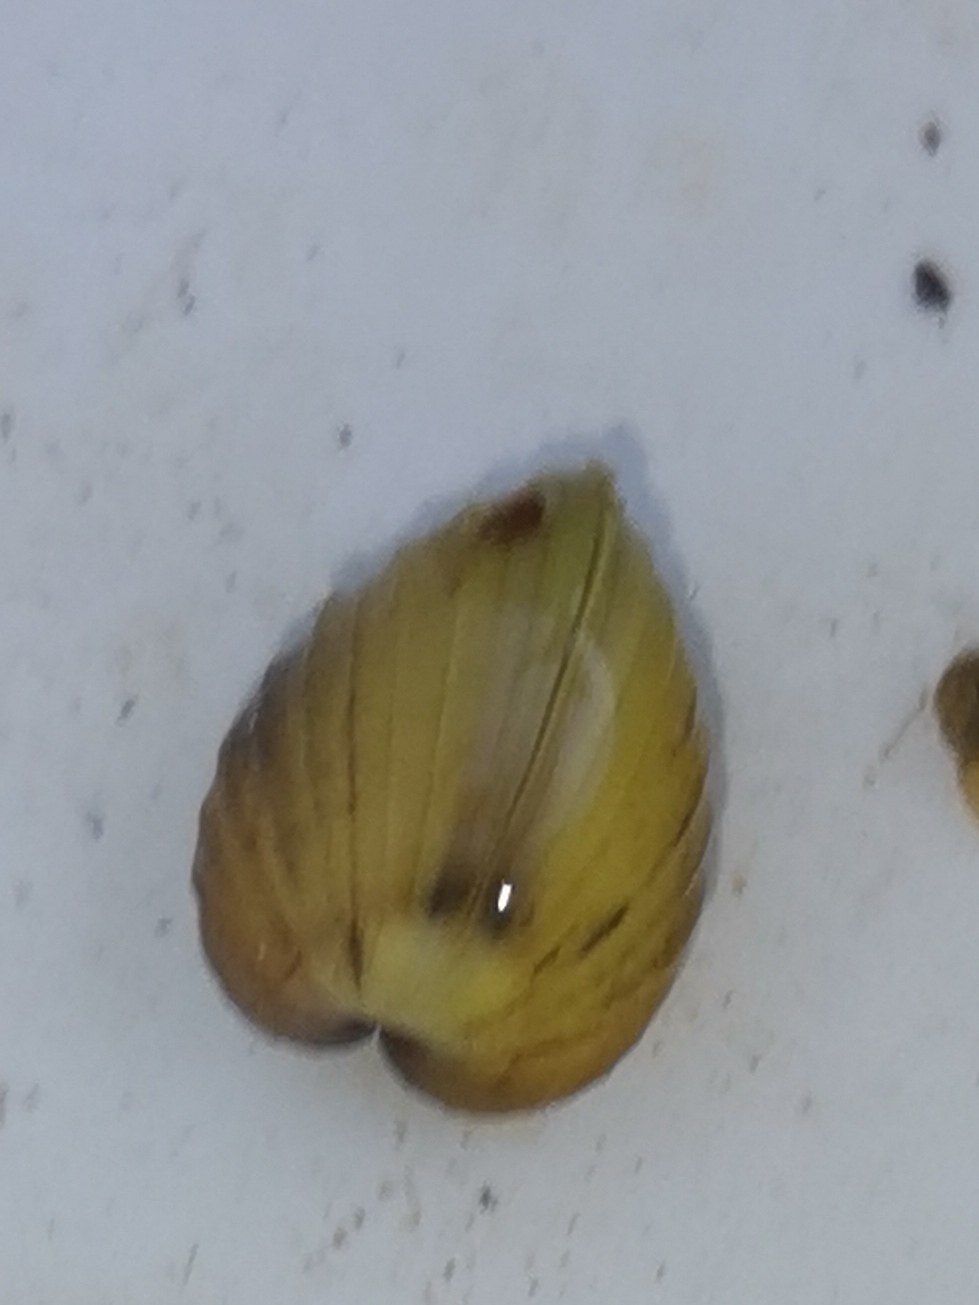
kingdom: Animalia
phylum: Mollusca
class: Bivalvia
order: Venerida
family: Cyrenidae
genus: Corbicula
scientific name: Corbicula fluminea
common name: Asian clam
